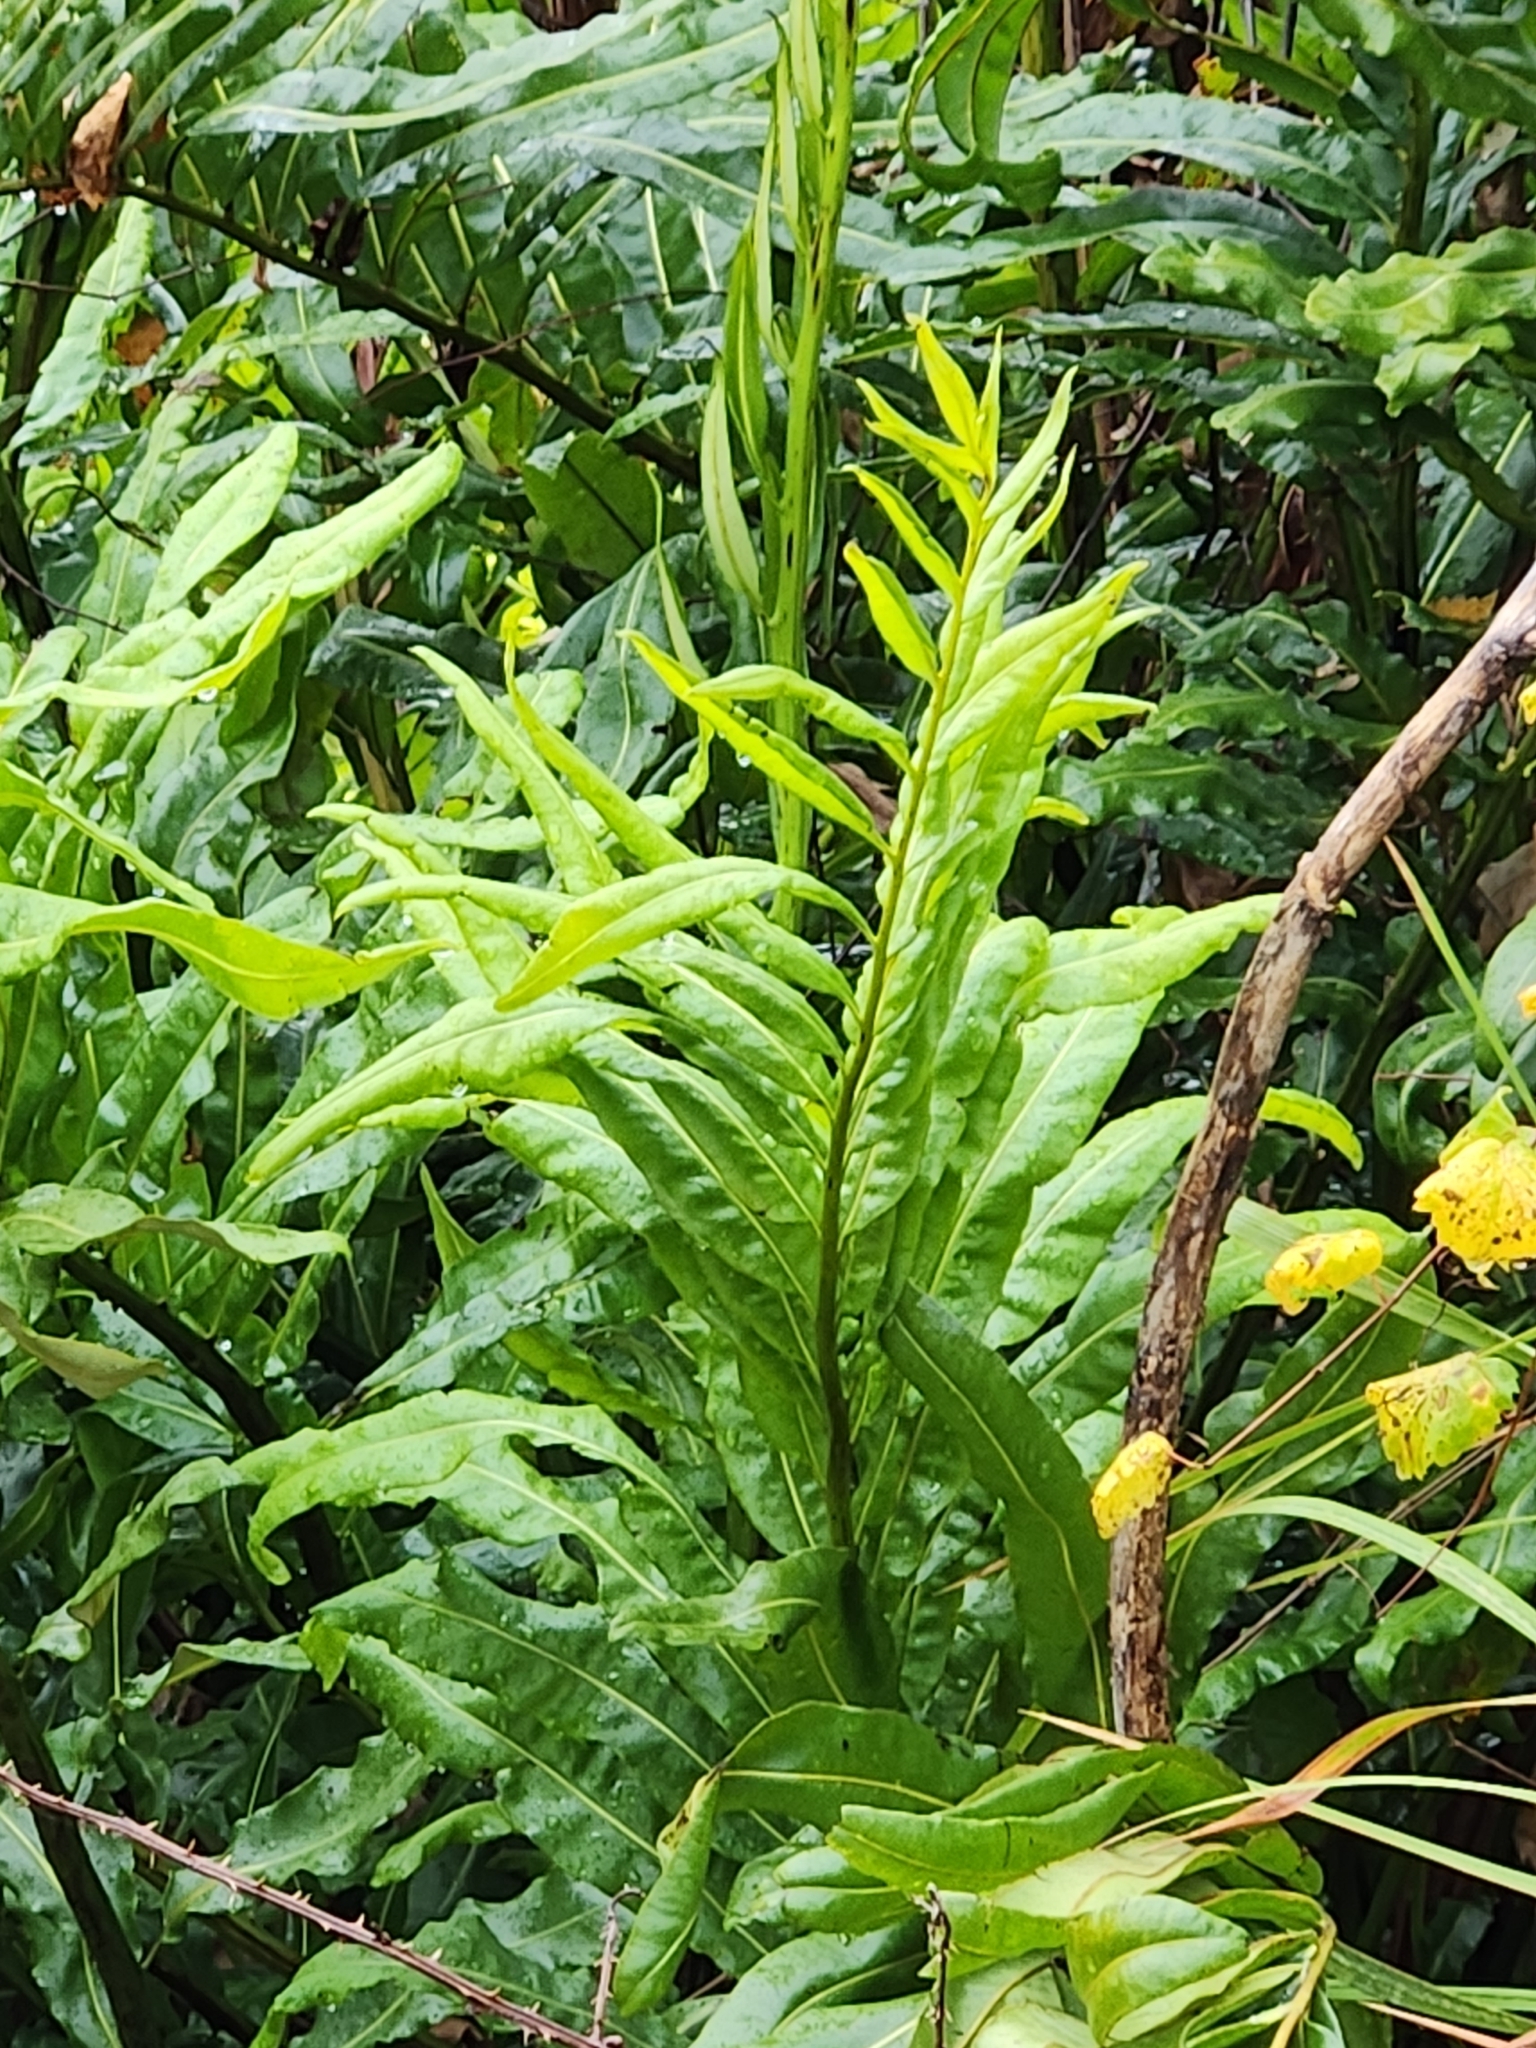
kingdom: Plantae
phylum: Tracheophyta
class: Polypodiopsida
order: Polypodiales
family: Pteridaceae
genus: Acrostichum
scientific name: Acrostichum danaeifolium
